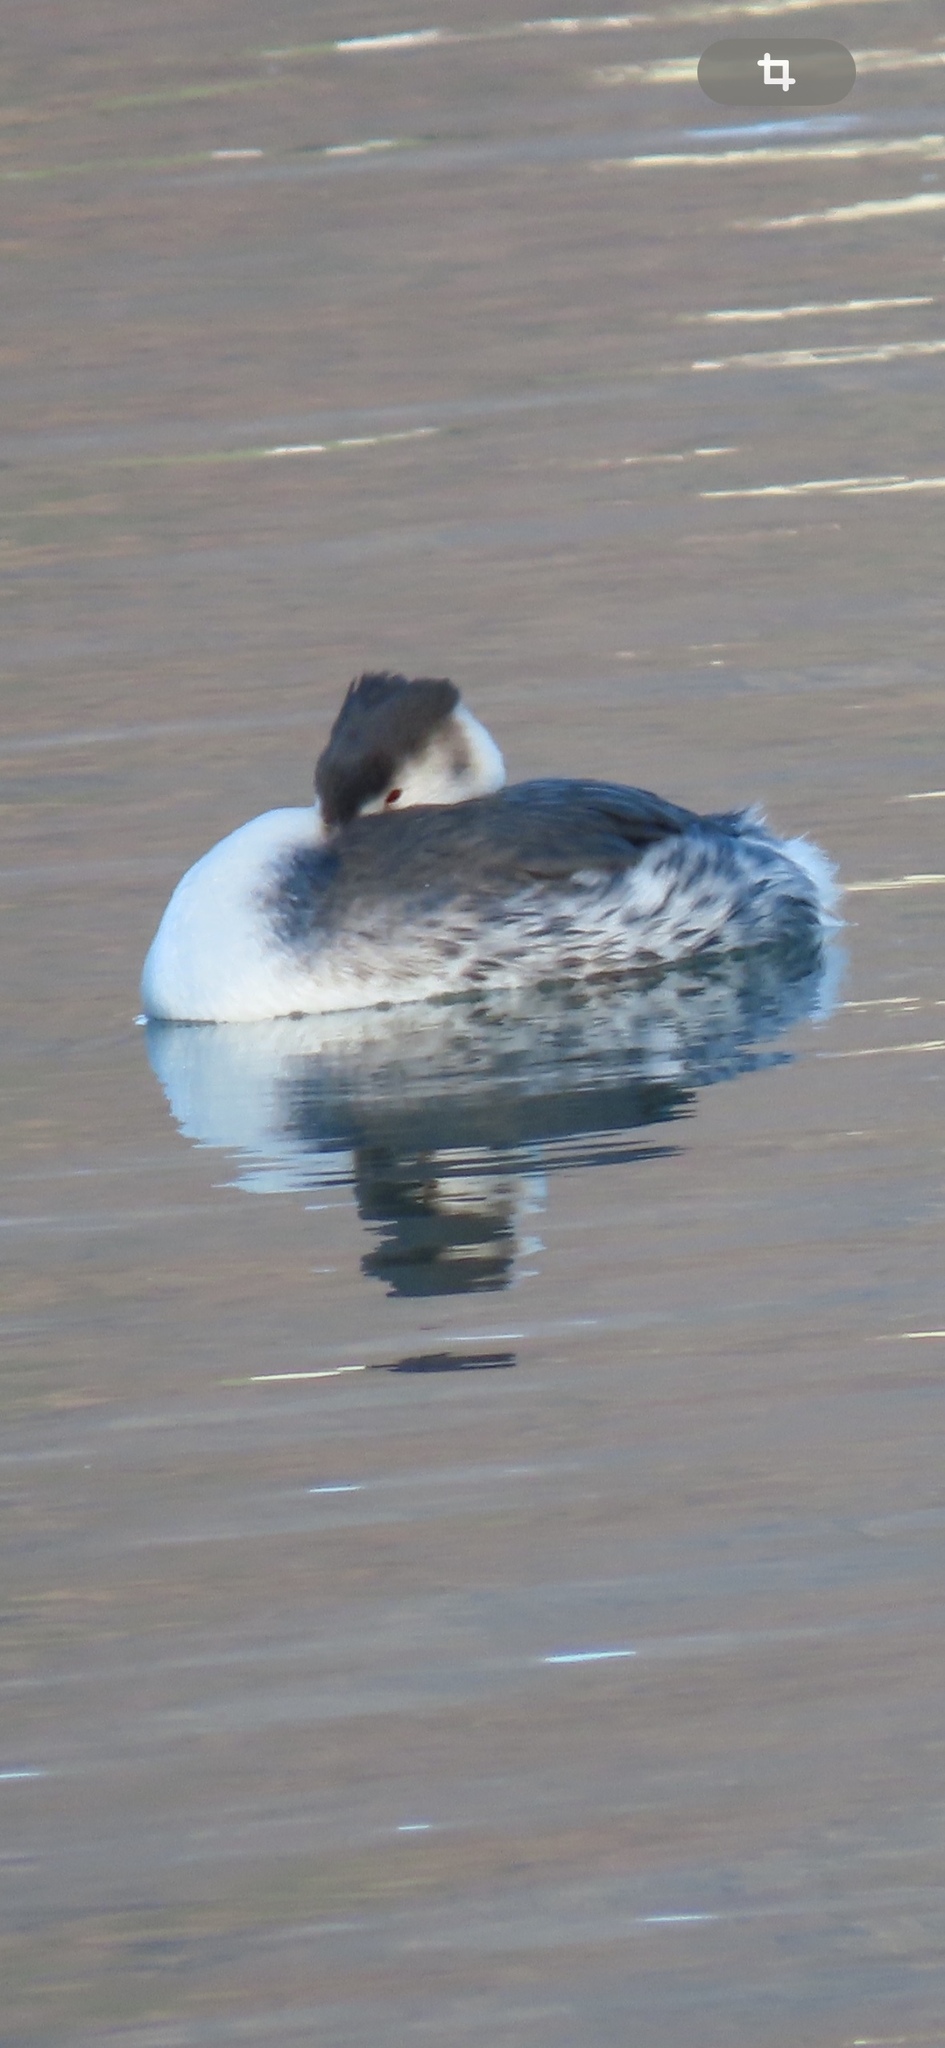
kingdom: Animalia
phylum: Chordata
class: Aves
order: Podicipediformes
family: Podicipedidae
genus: Podiceps
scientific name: Podiceps cristatus
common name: Great crested grebe
